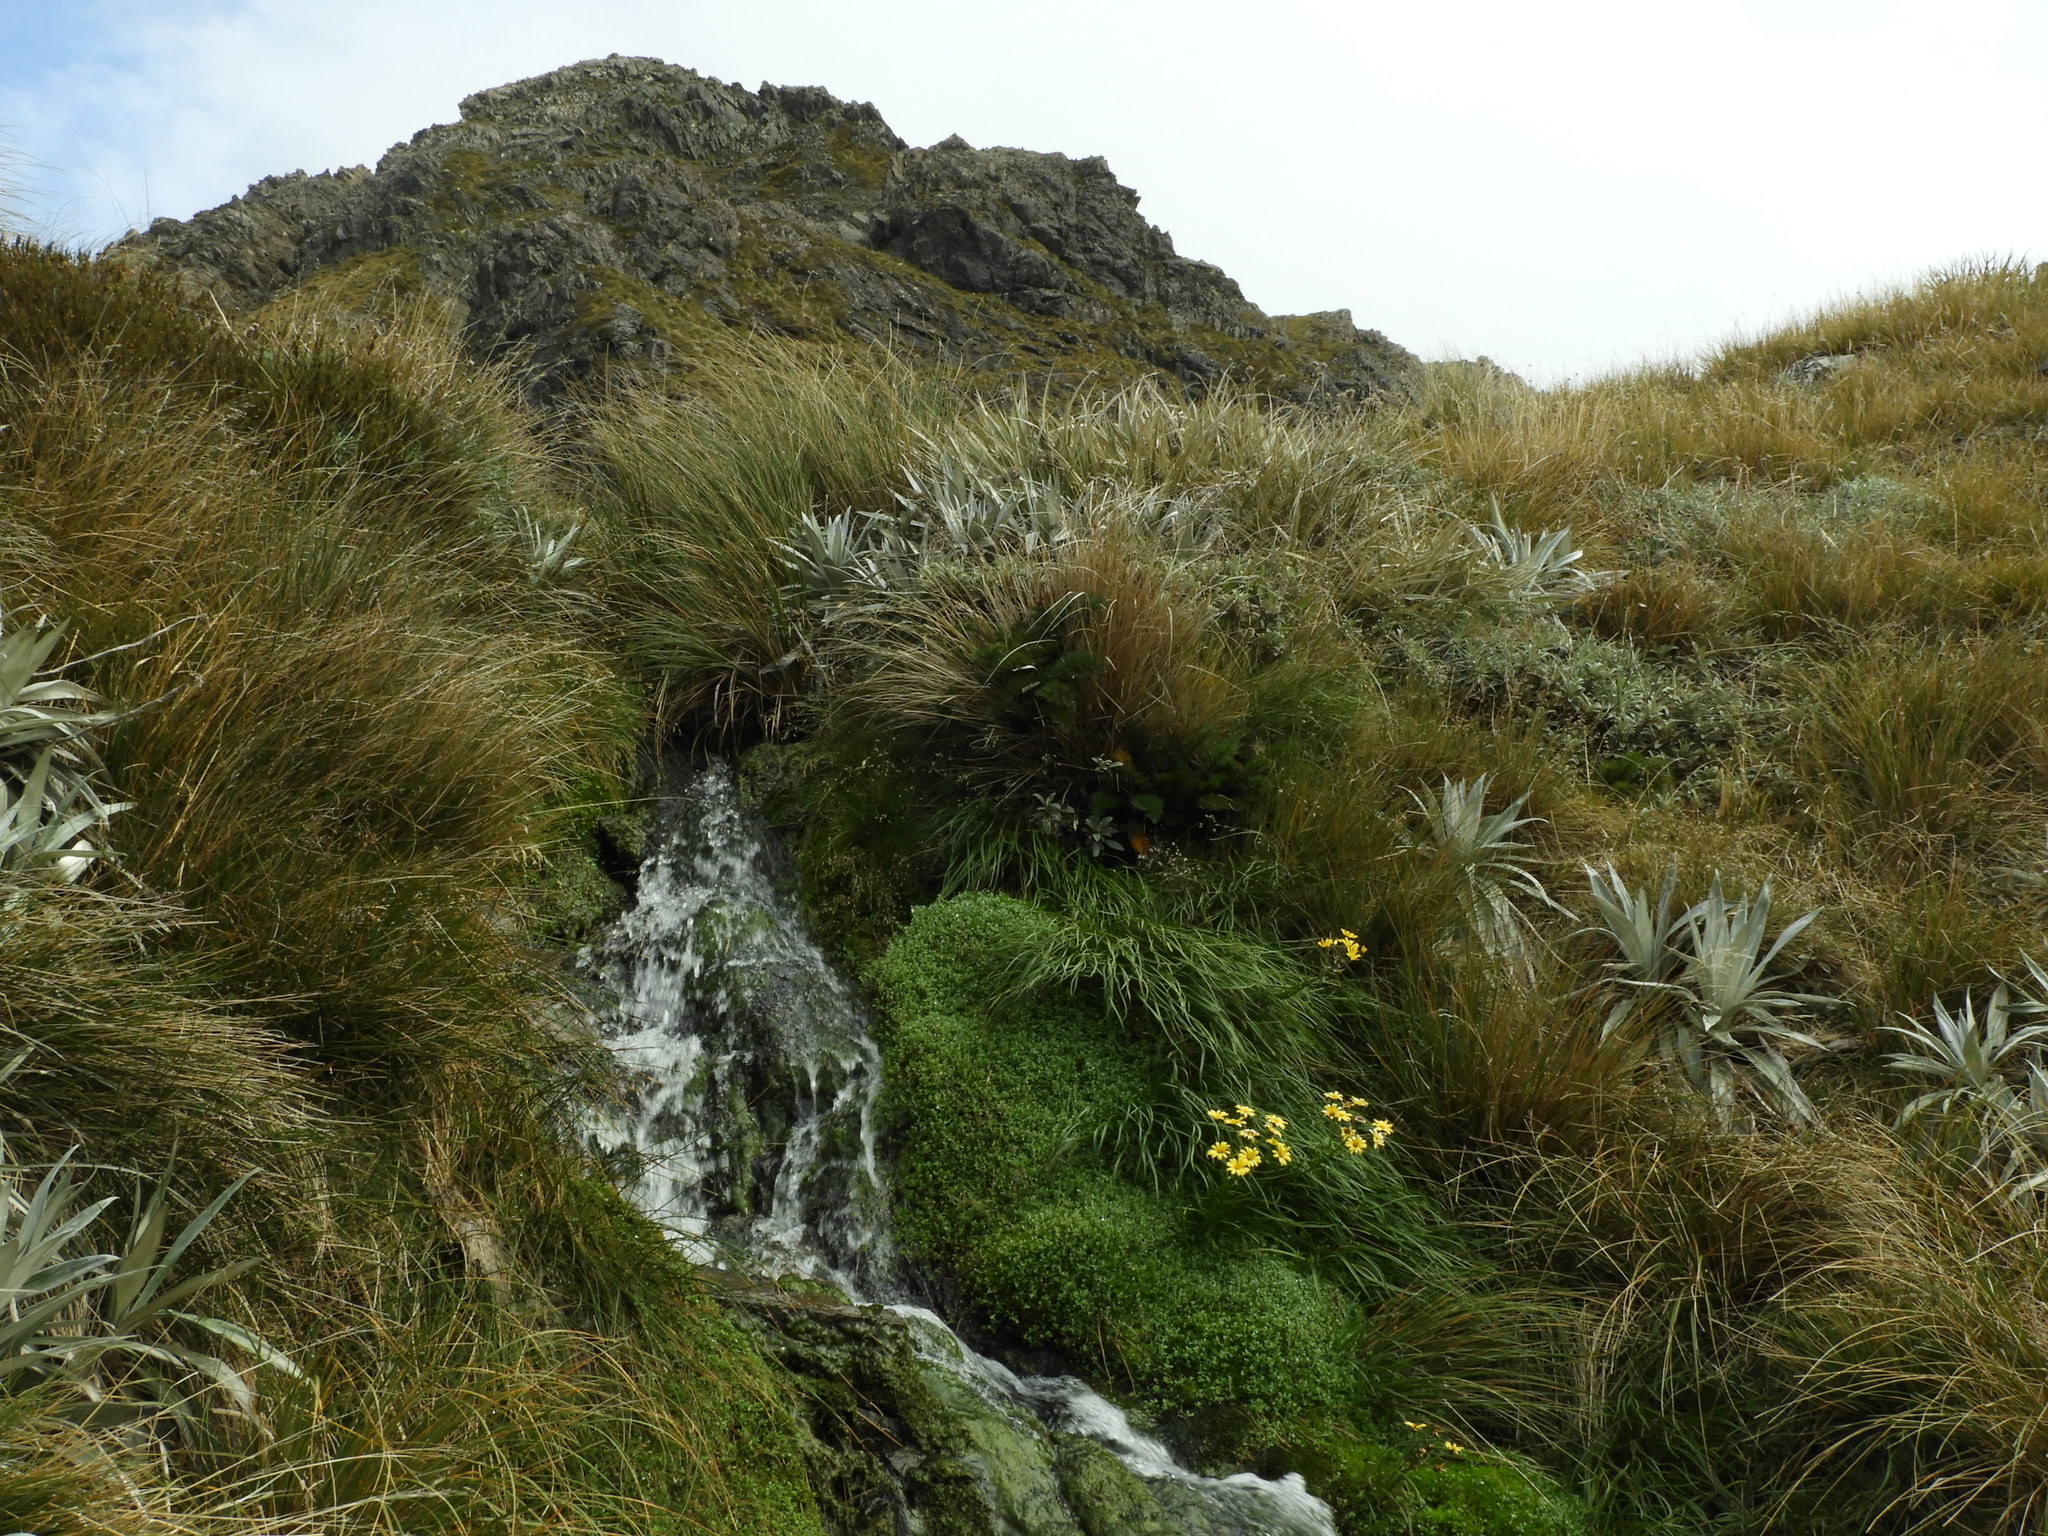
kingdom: Plantae
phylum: Tracheophyta
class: Magnoliopsida
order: Asterales
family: Asteraceae
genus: Dolichoglottis
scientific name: Dolichoglottis lyallii
